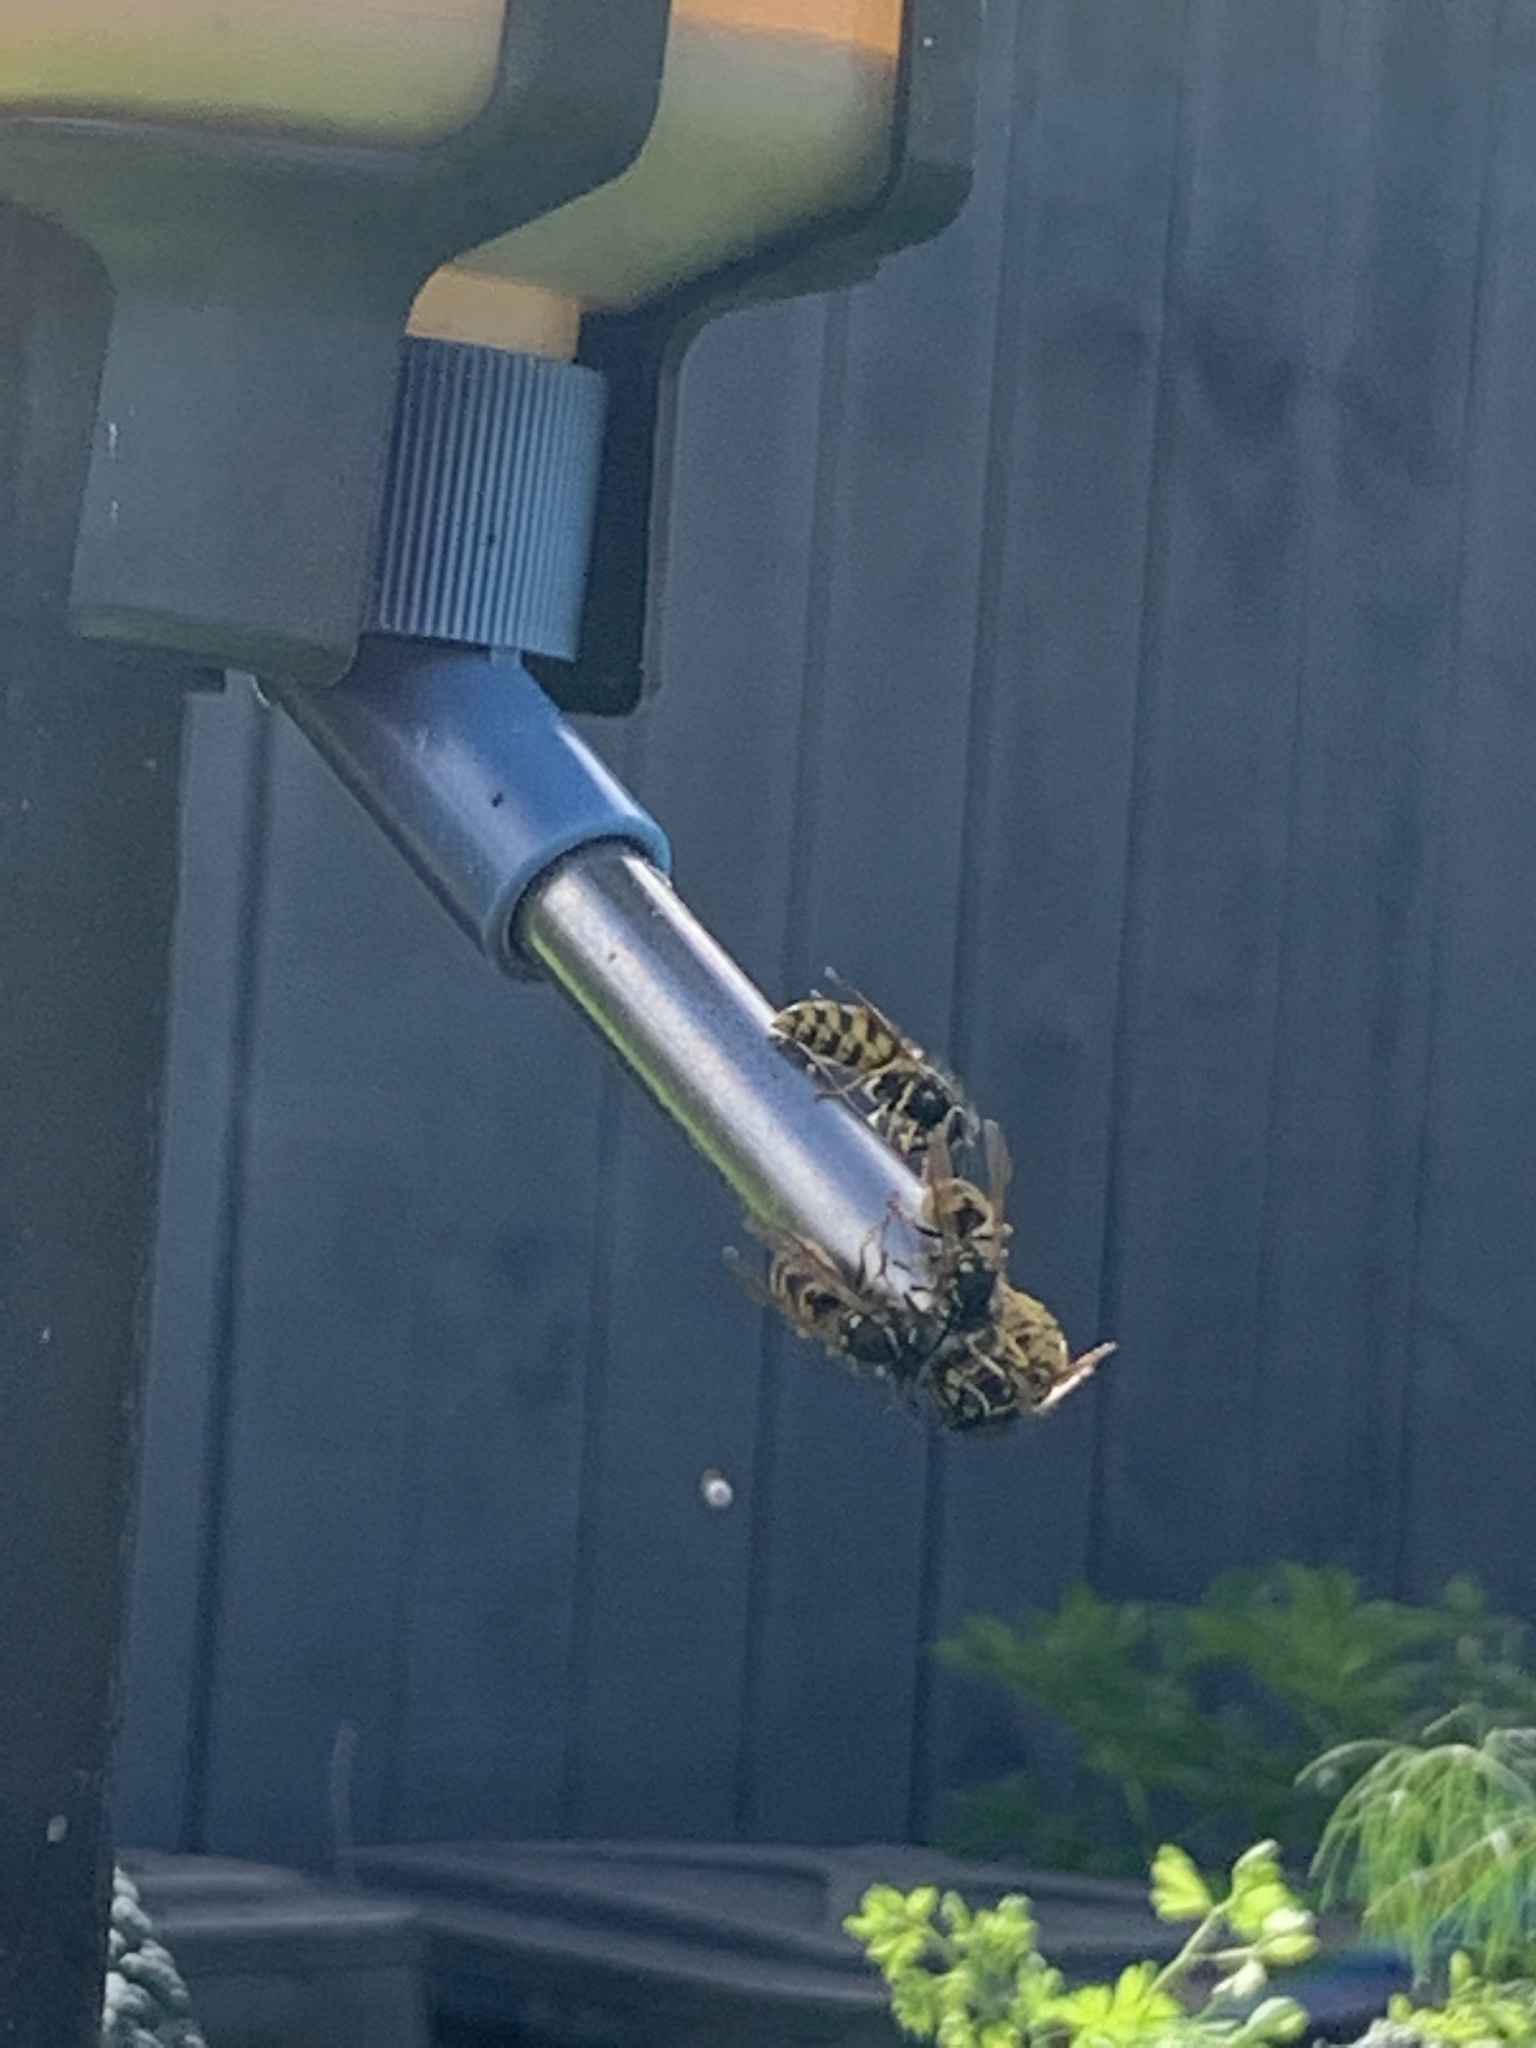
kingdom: Animalia
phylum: Arthropoda
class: Insecta
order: Hymenoptera
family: Vespidae
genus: Vespula
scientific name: Vespula
